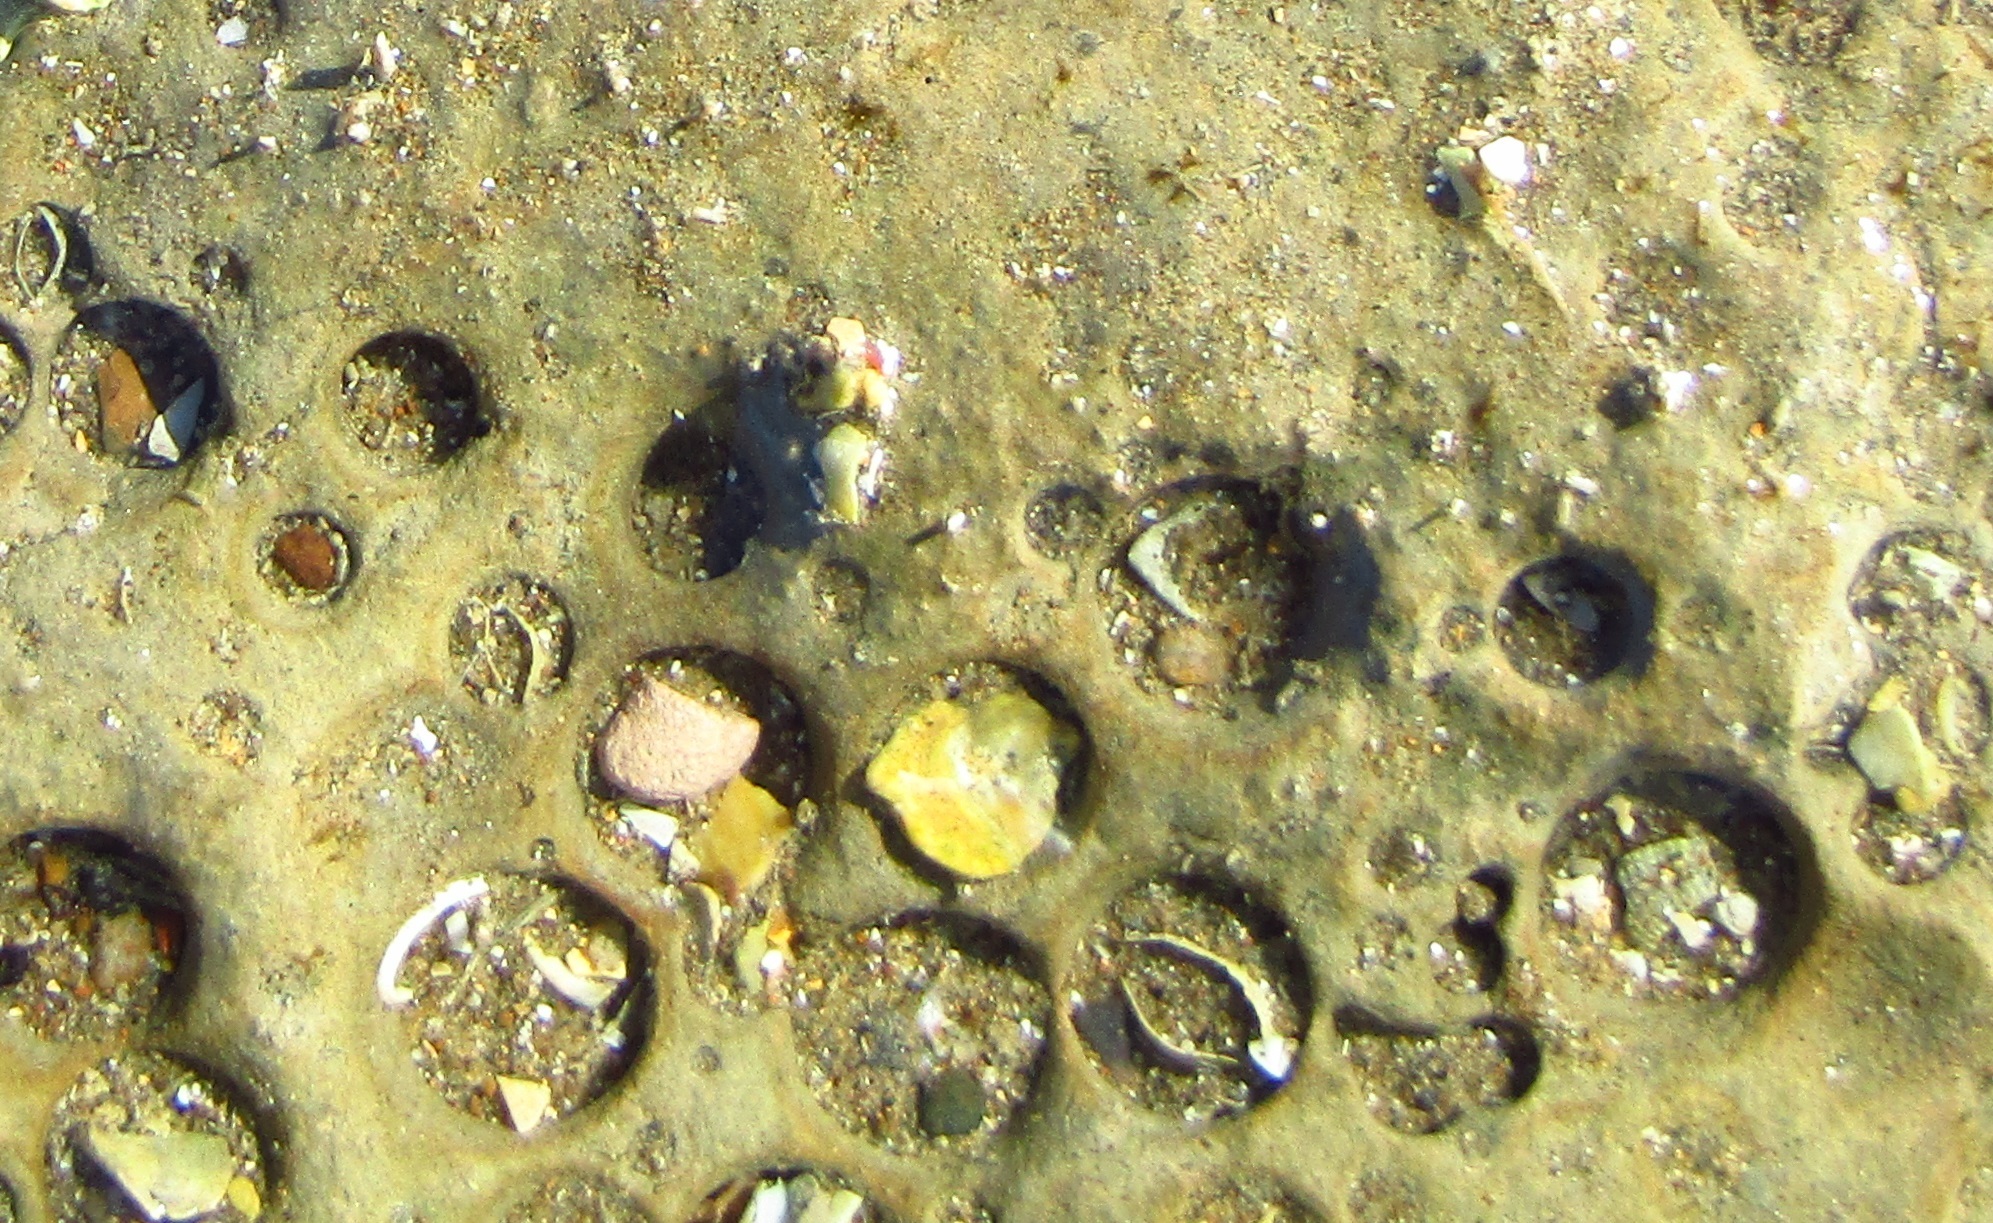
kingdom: Animalia
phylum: Mollusca
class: Bivalvia
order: Myida
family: Pholadidae
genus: Barnea
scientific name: Barnea similis
